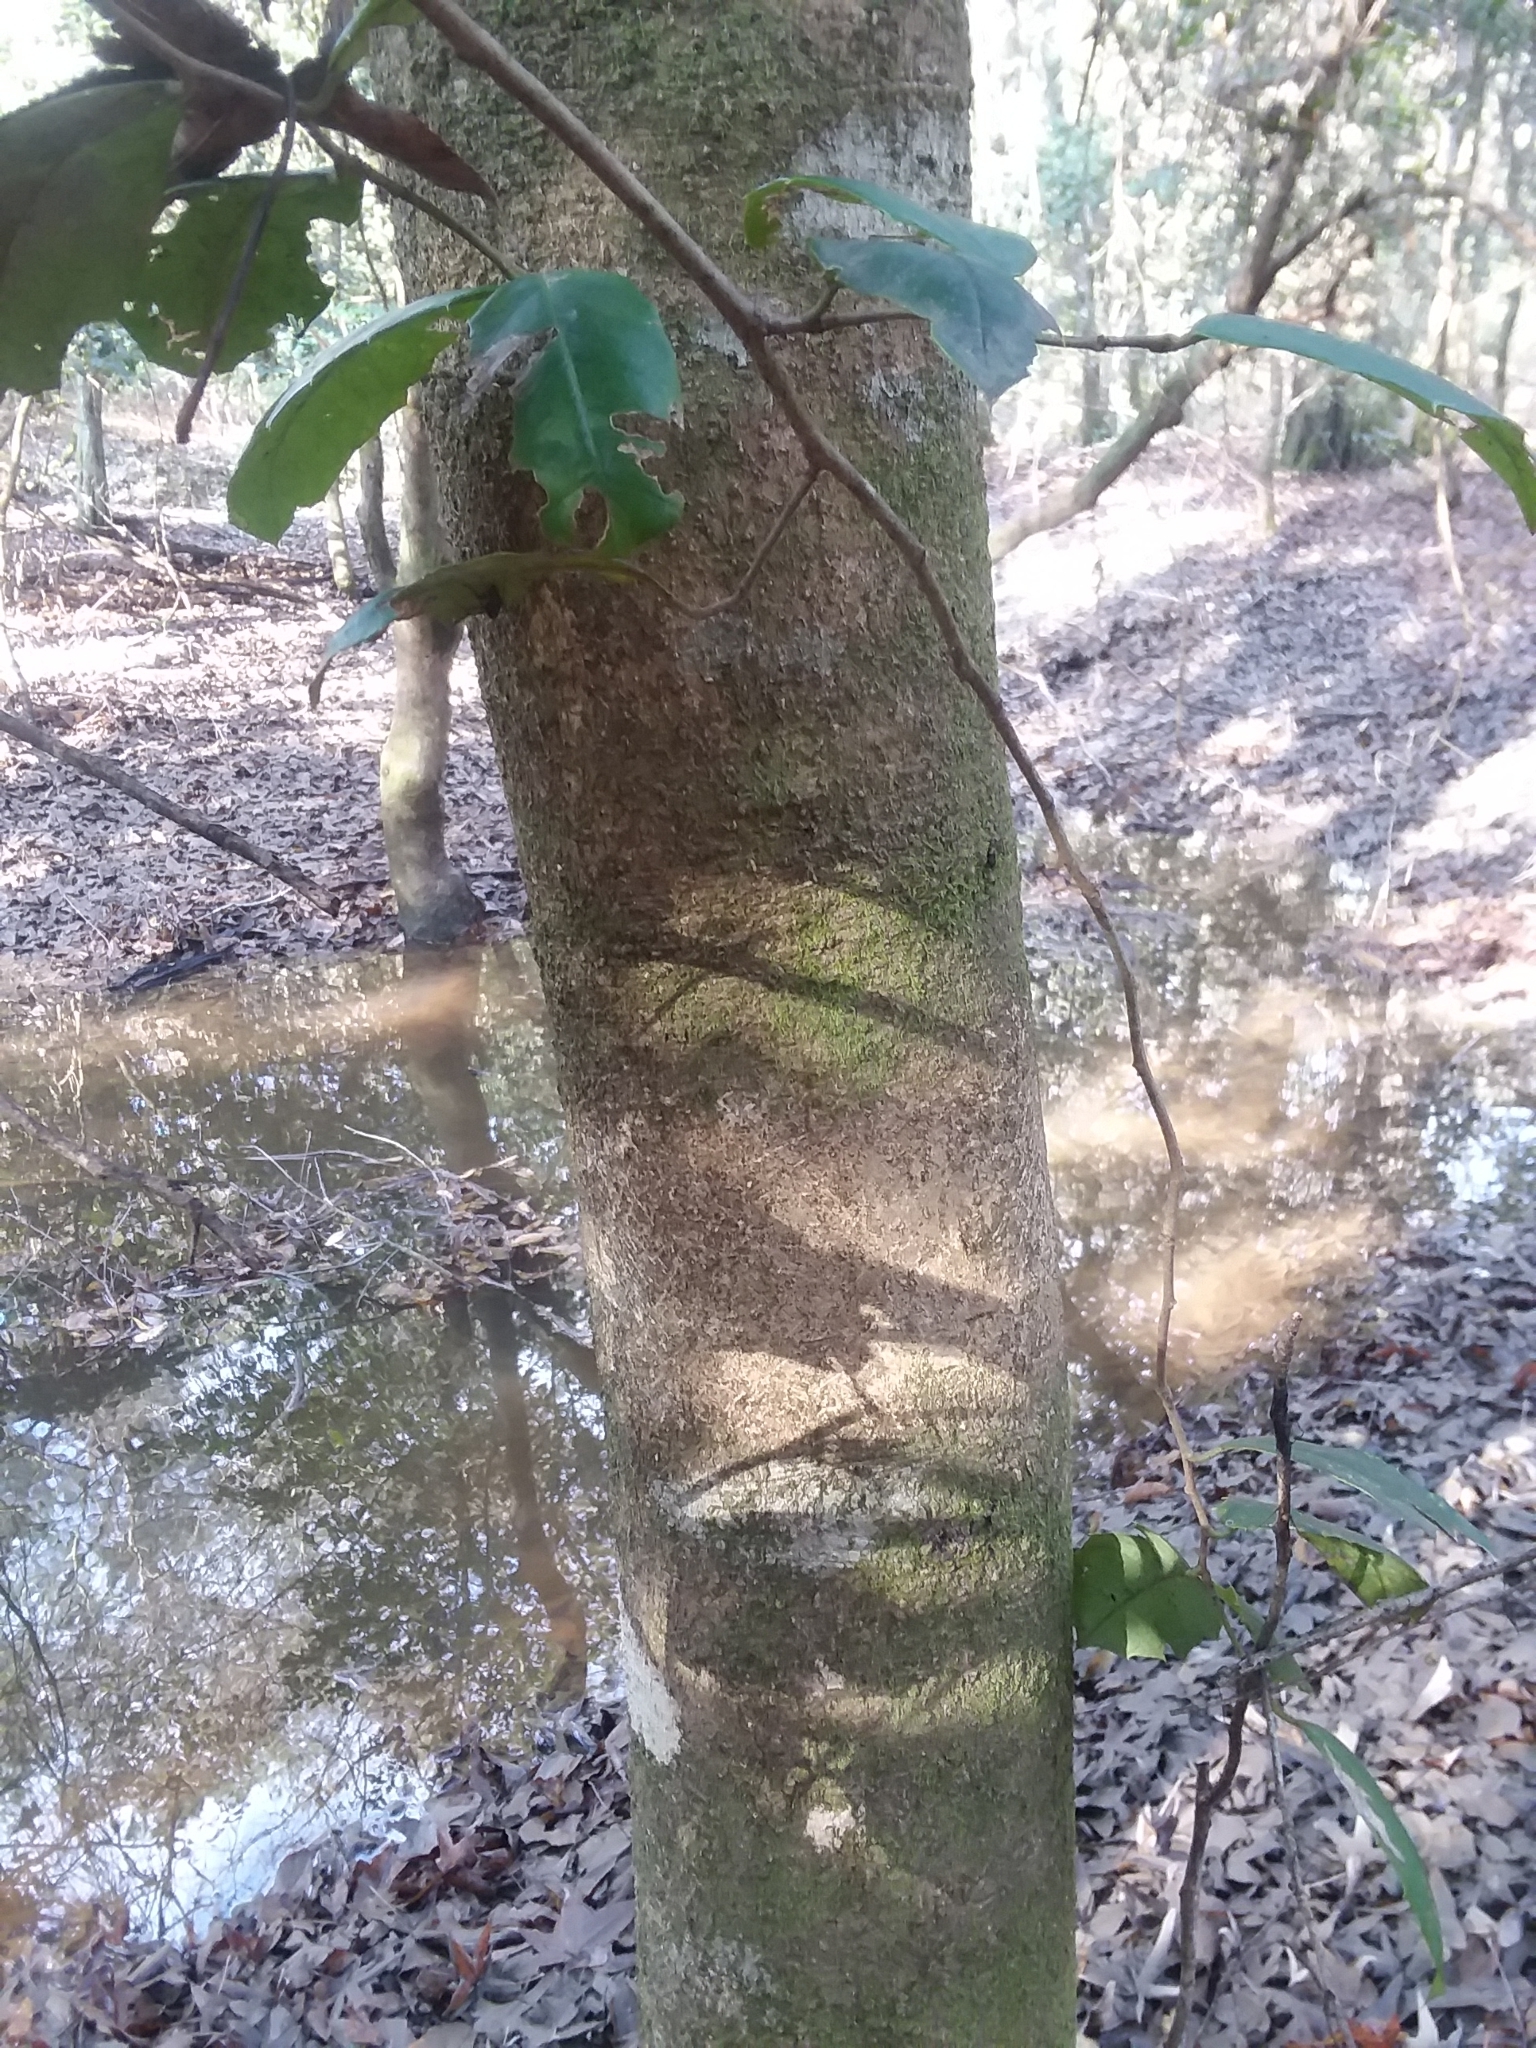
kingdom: Plantae
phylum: Tracheophyta
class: Magnoliopsida
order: Aquifoliales
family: Aquifoliaceae
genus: Ilex
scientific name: Ilex opaca
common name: American holly
